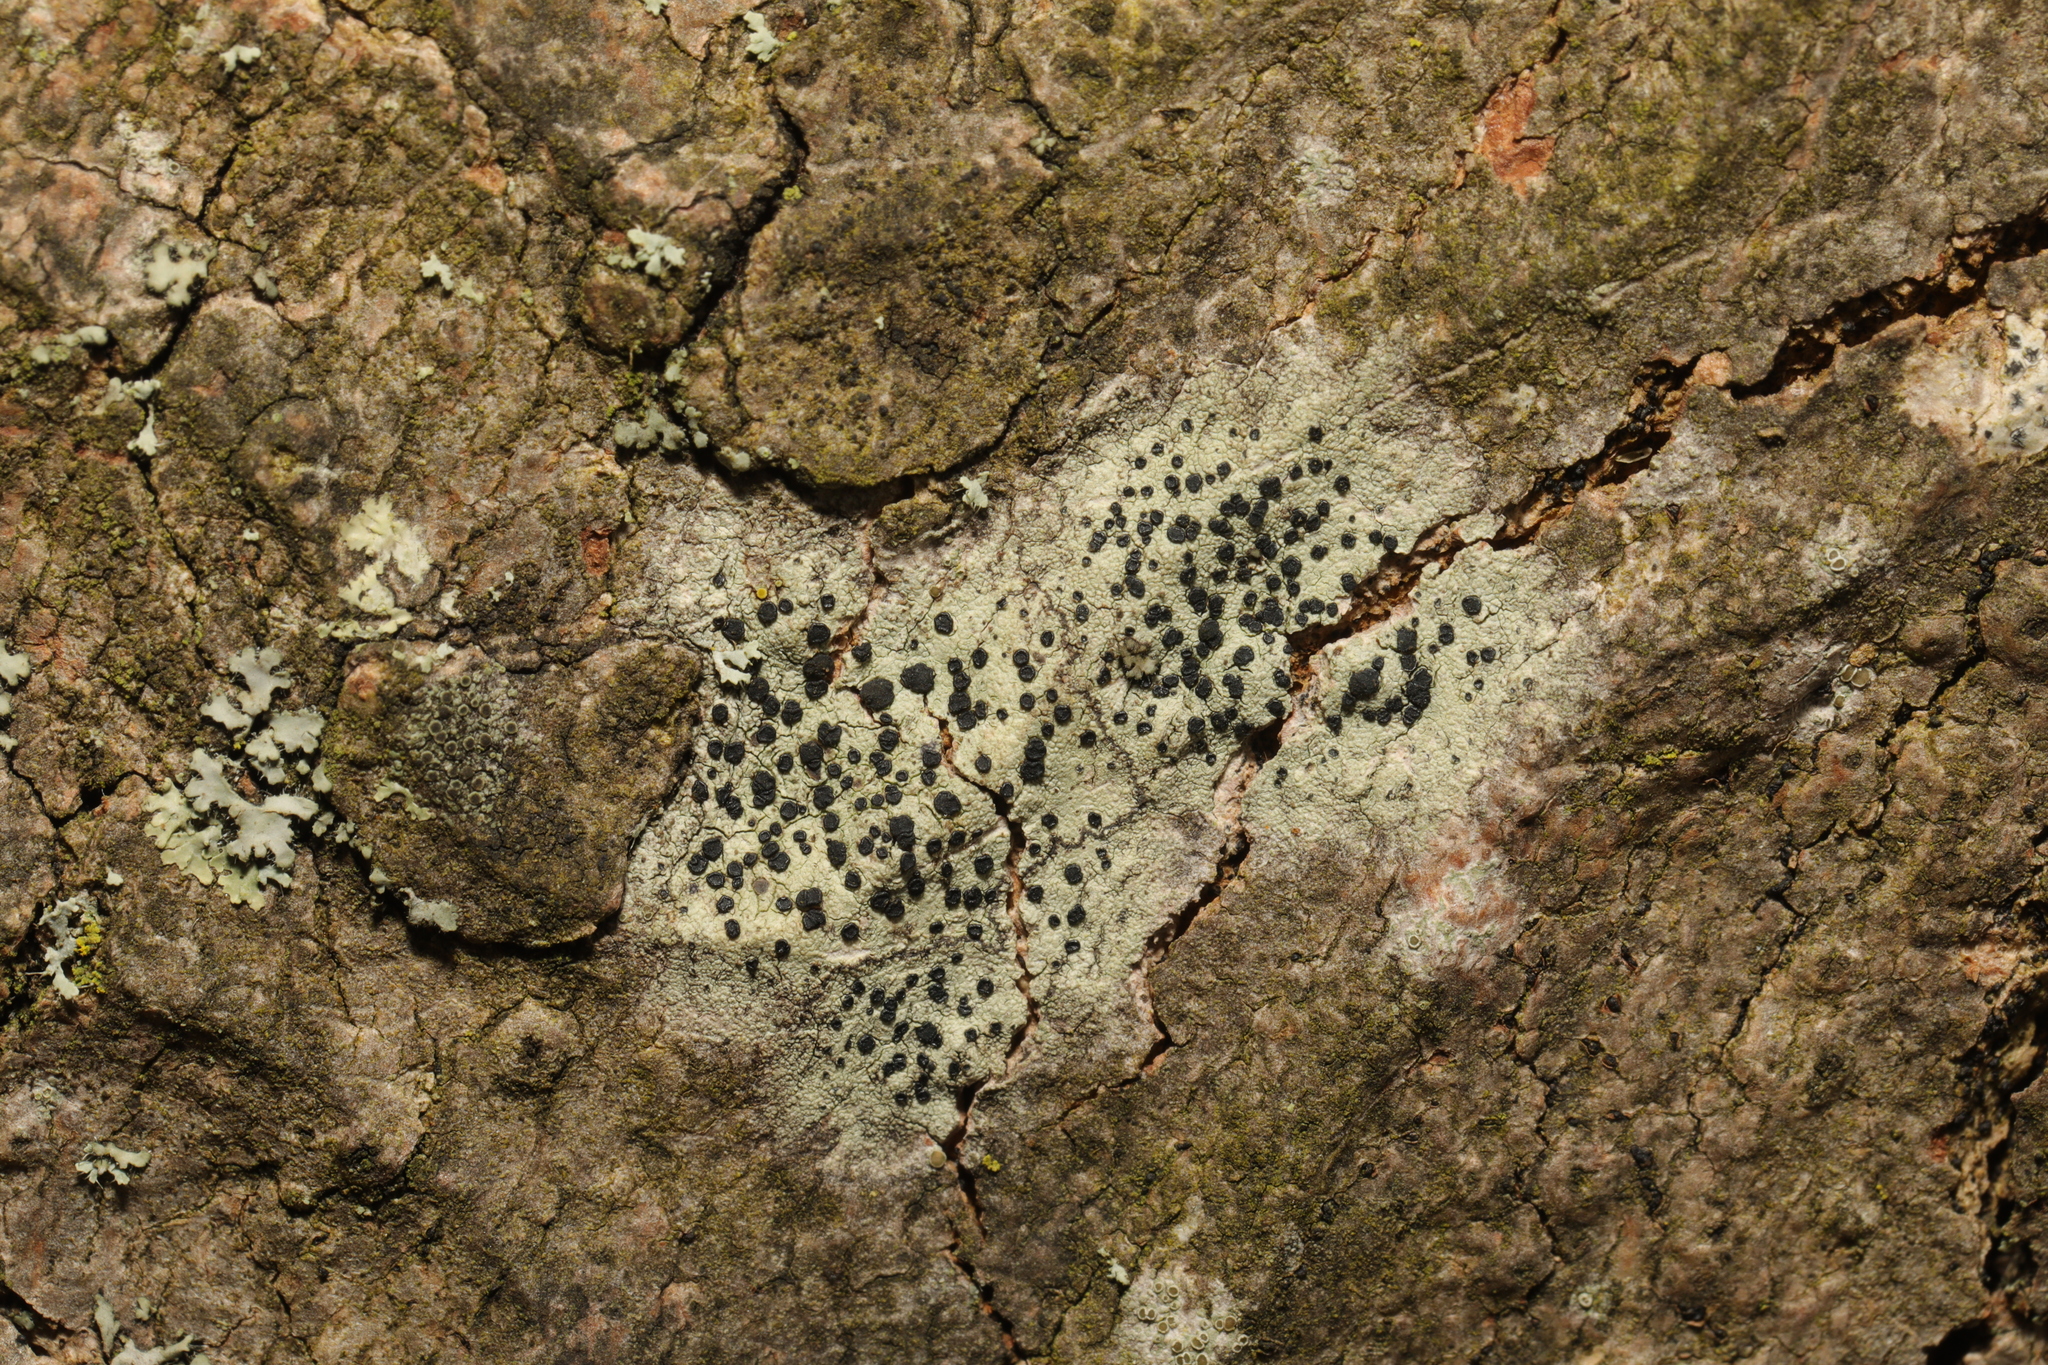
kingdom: Fungi
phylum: Ascomycota
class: Lecanoromycetes
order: Lecanorales
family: Lecanoraceae
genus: Lecidella
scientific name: Lecidella elaeochroma
